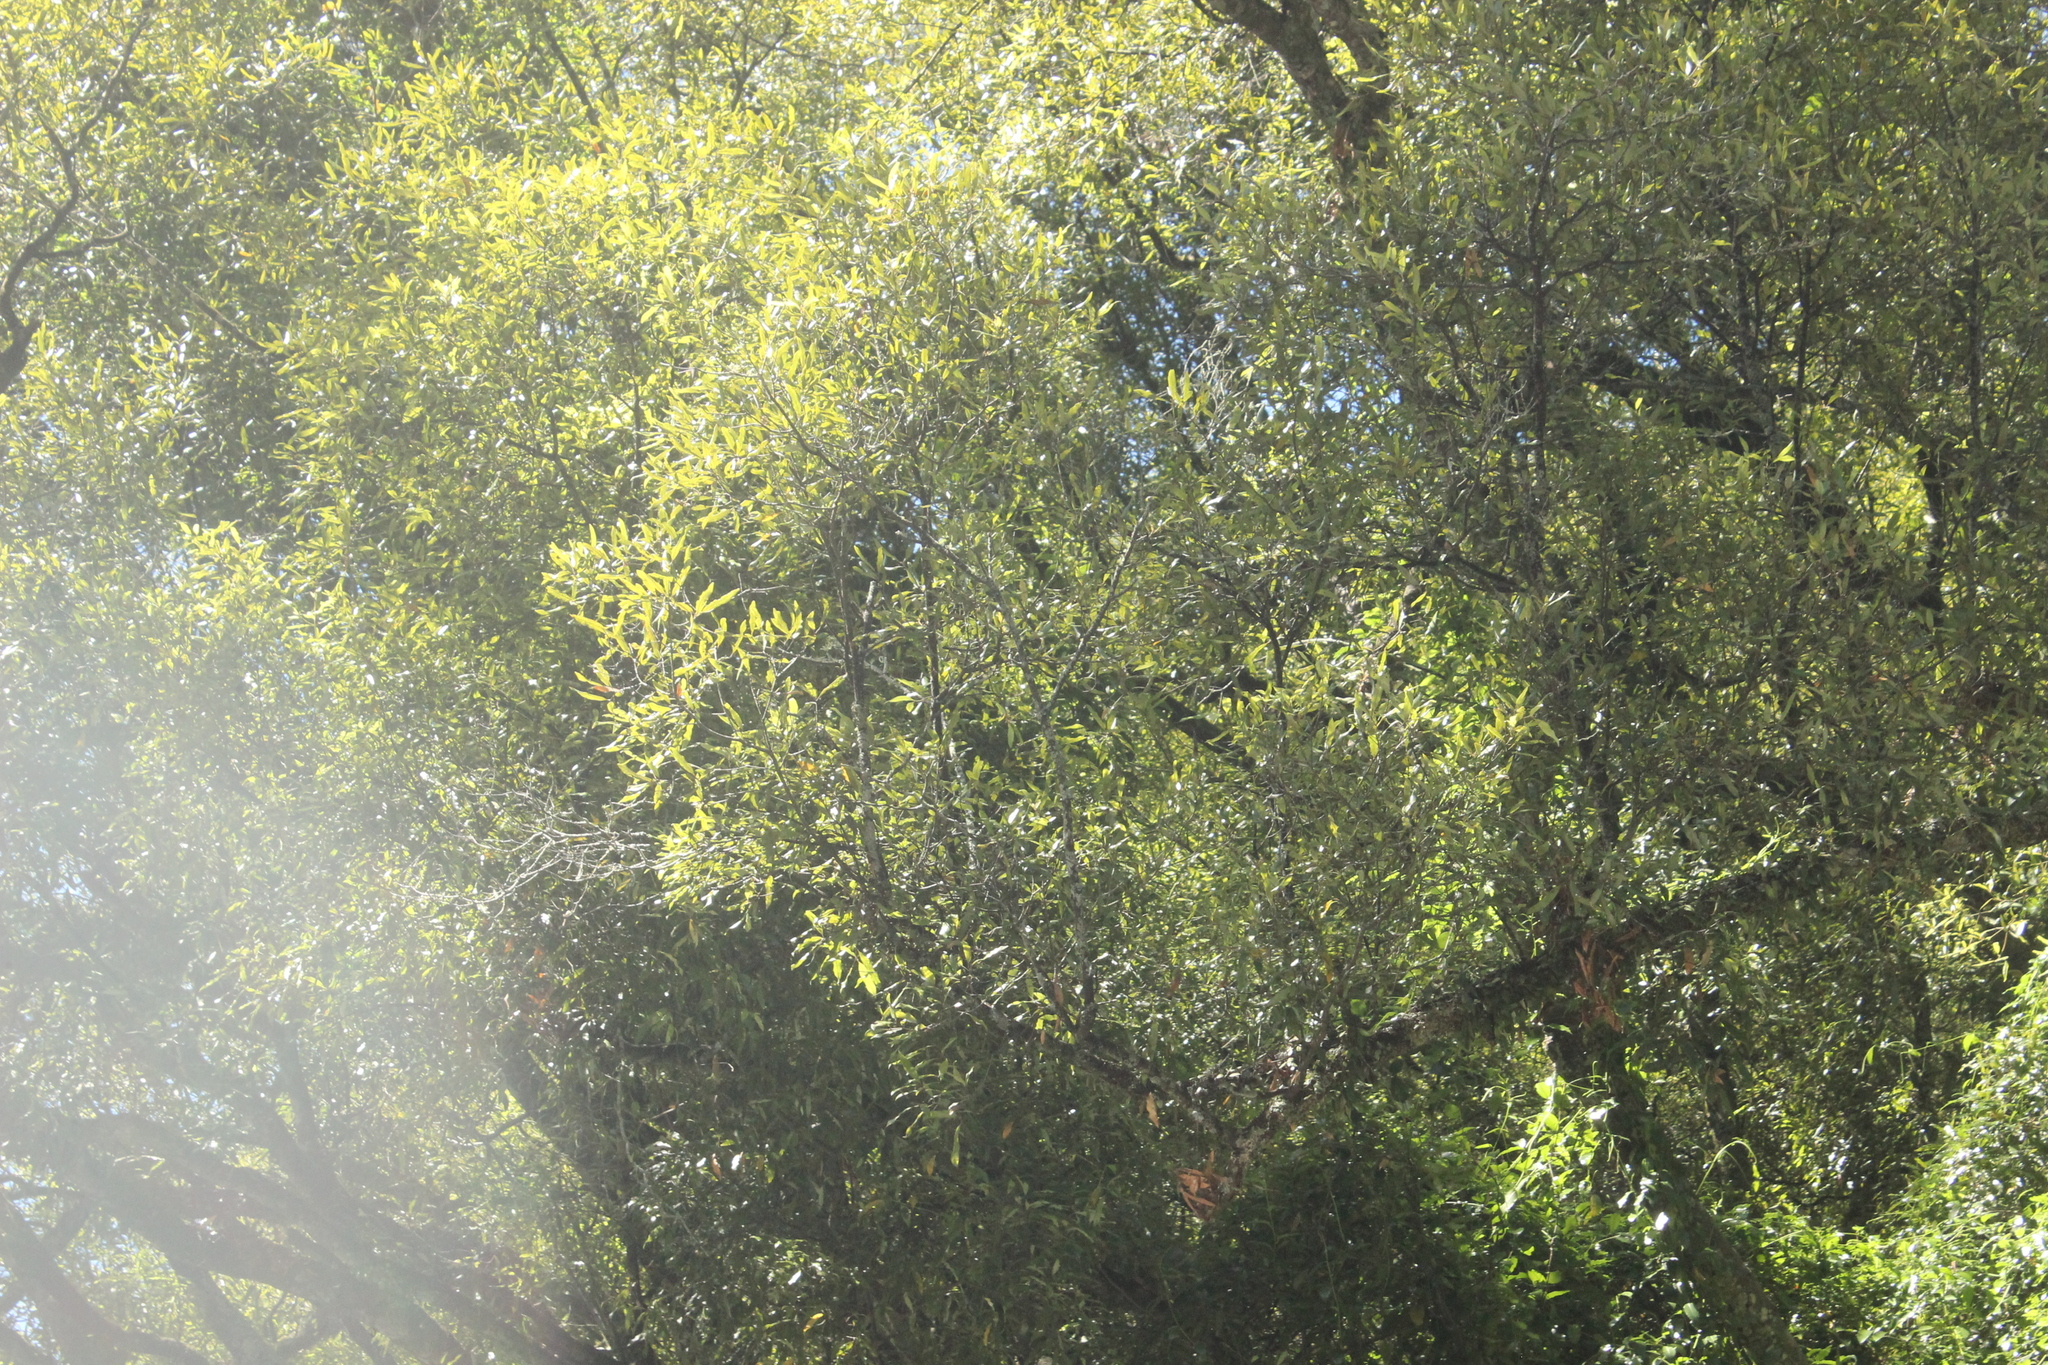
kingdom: Plantae
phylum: Tracheophyta
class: Magnoliopsida
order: Laurales
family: Lauraceae
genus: Beilschmiedia
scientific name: Beilschmiedia tawa
